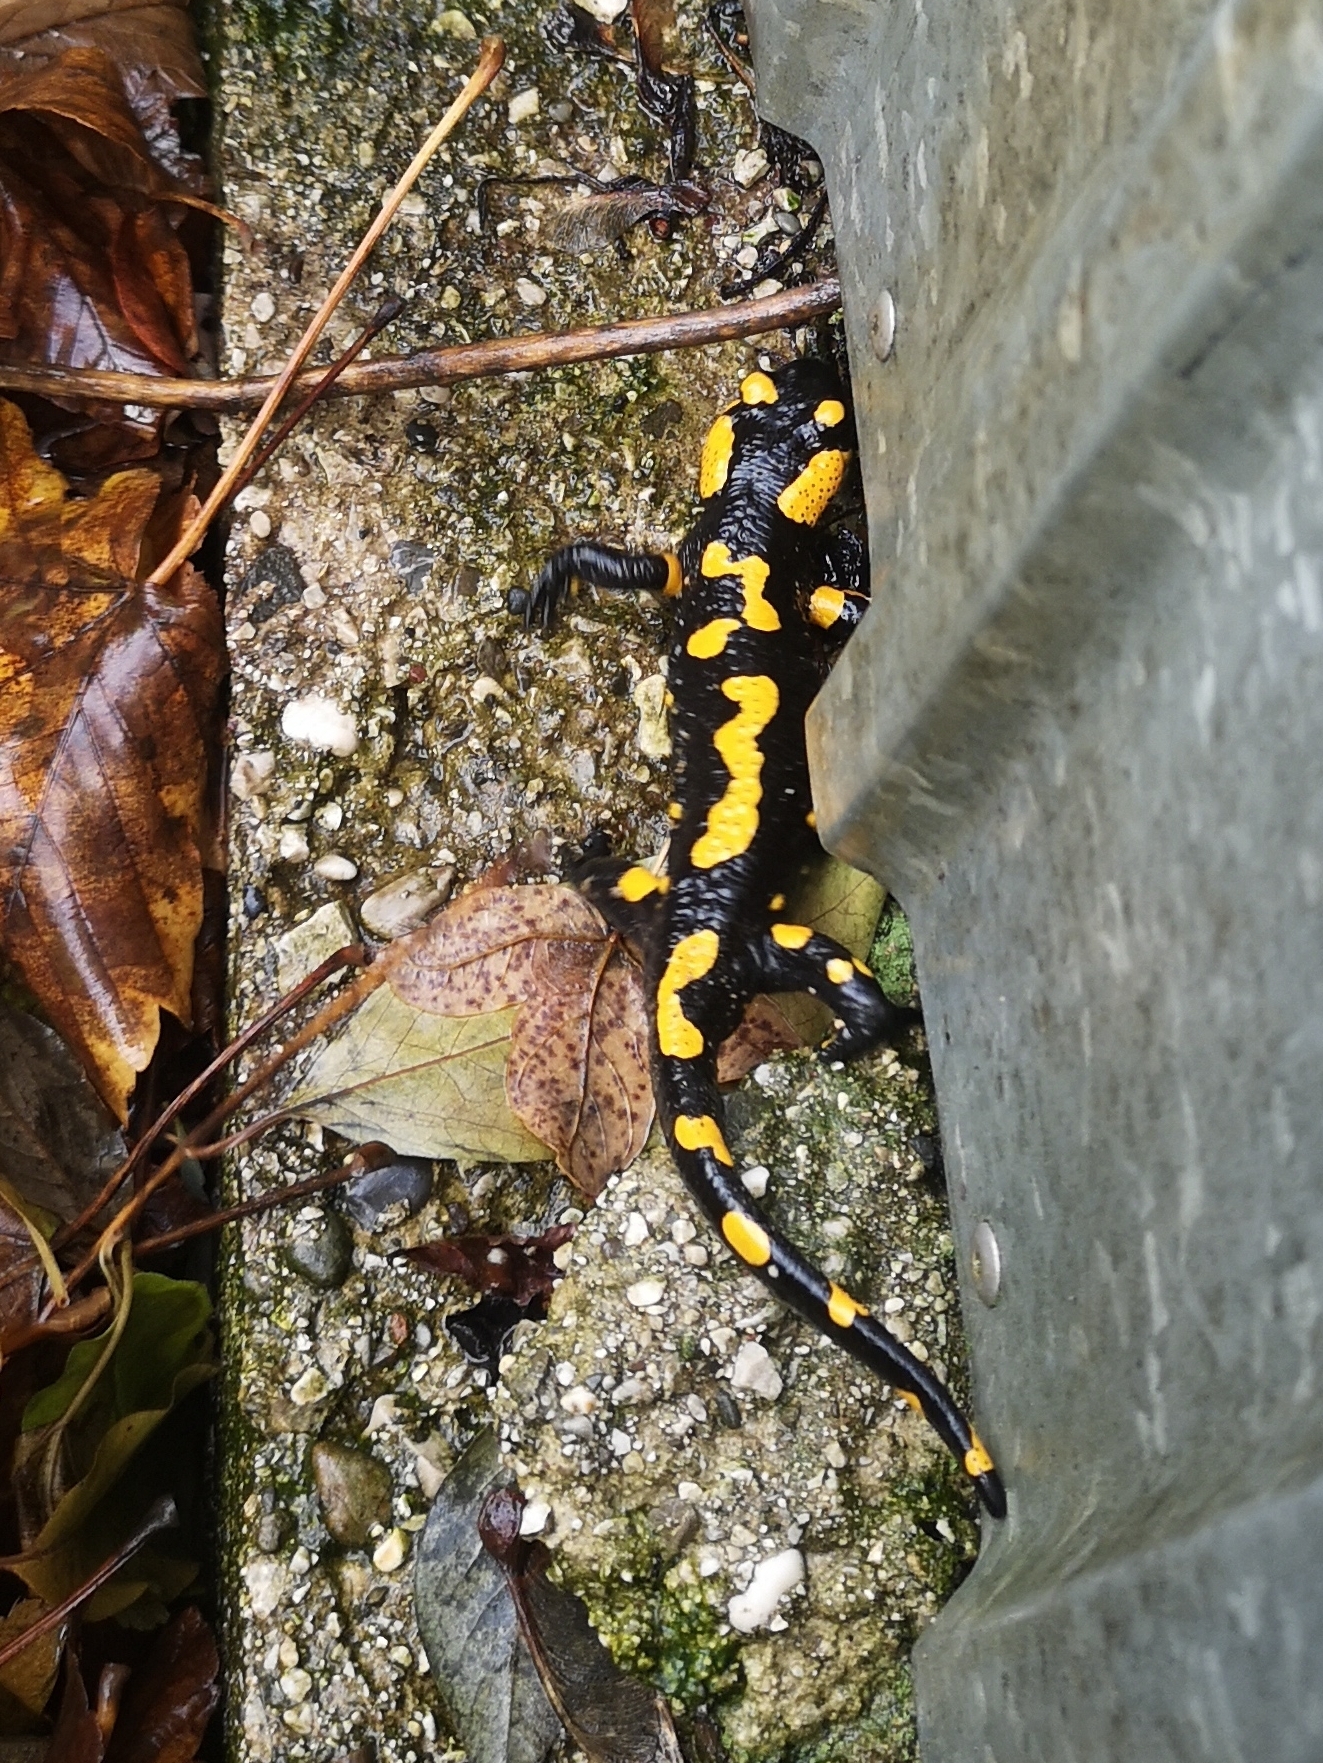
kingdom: Animalia
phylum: Chordata
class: Amphibia
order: Caudata
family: Salamandridae
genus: Salamandra
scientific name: Salamandra salamandra
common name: Fire salamander
